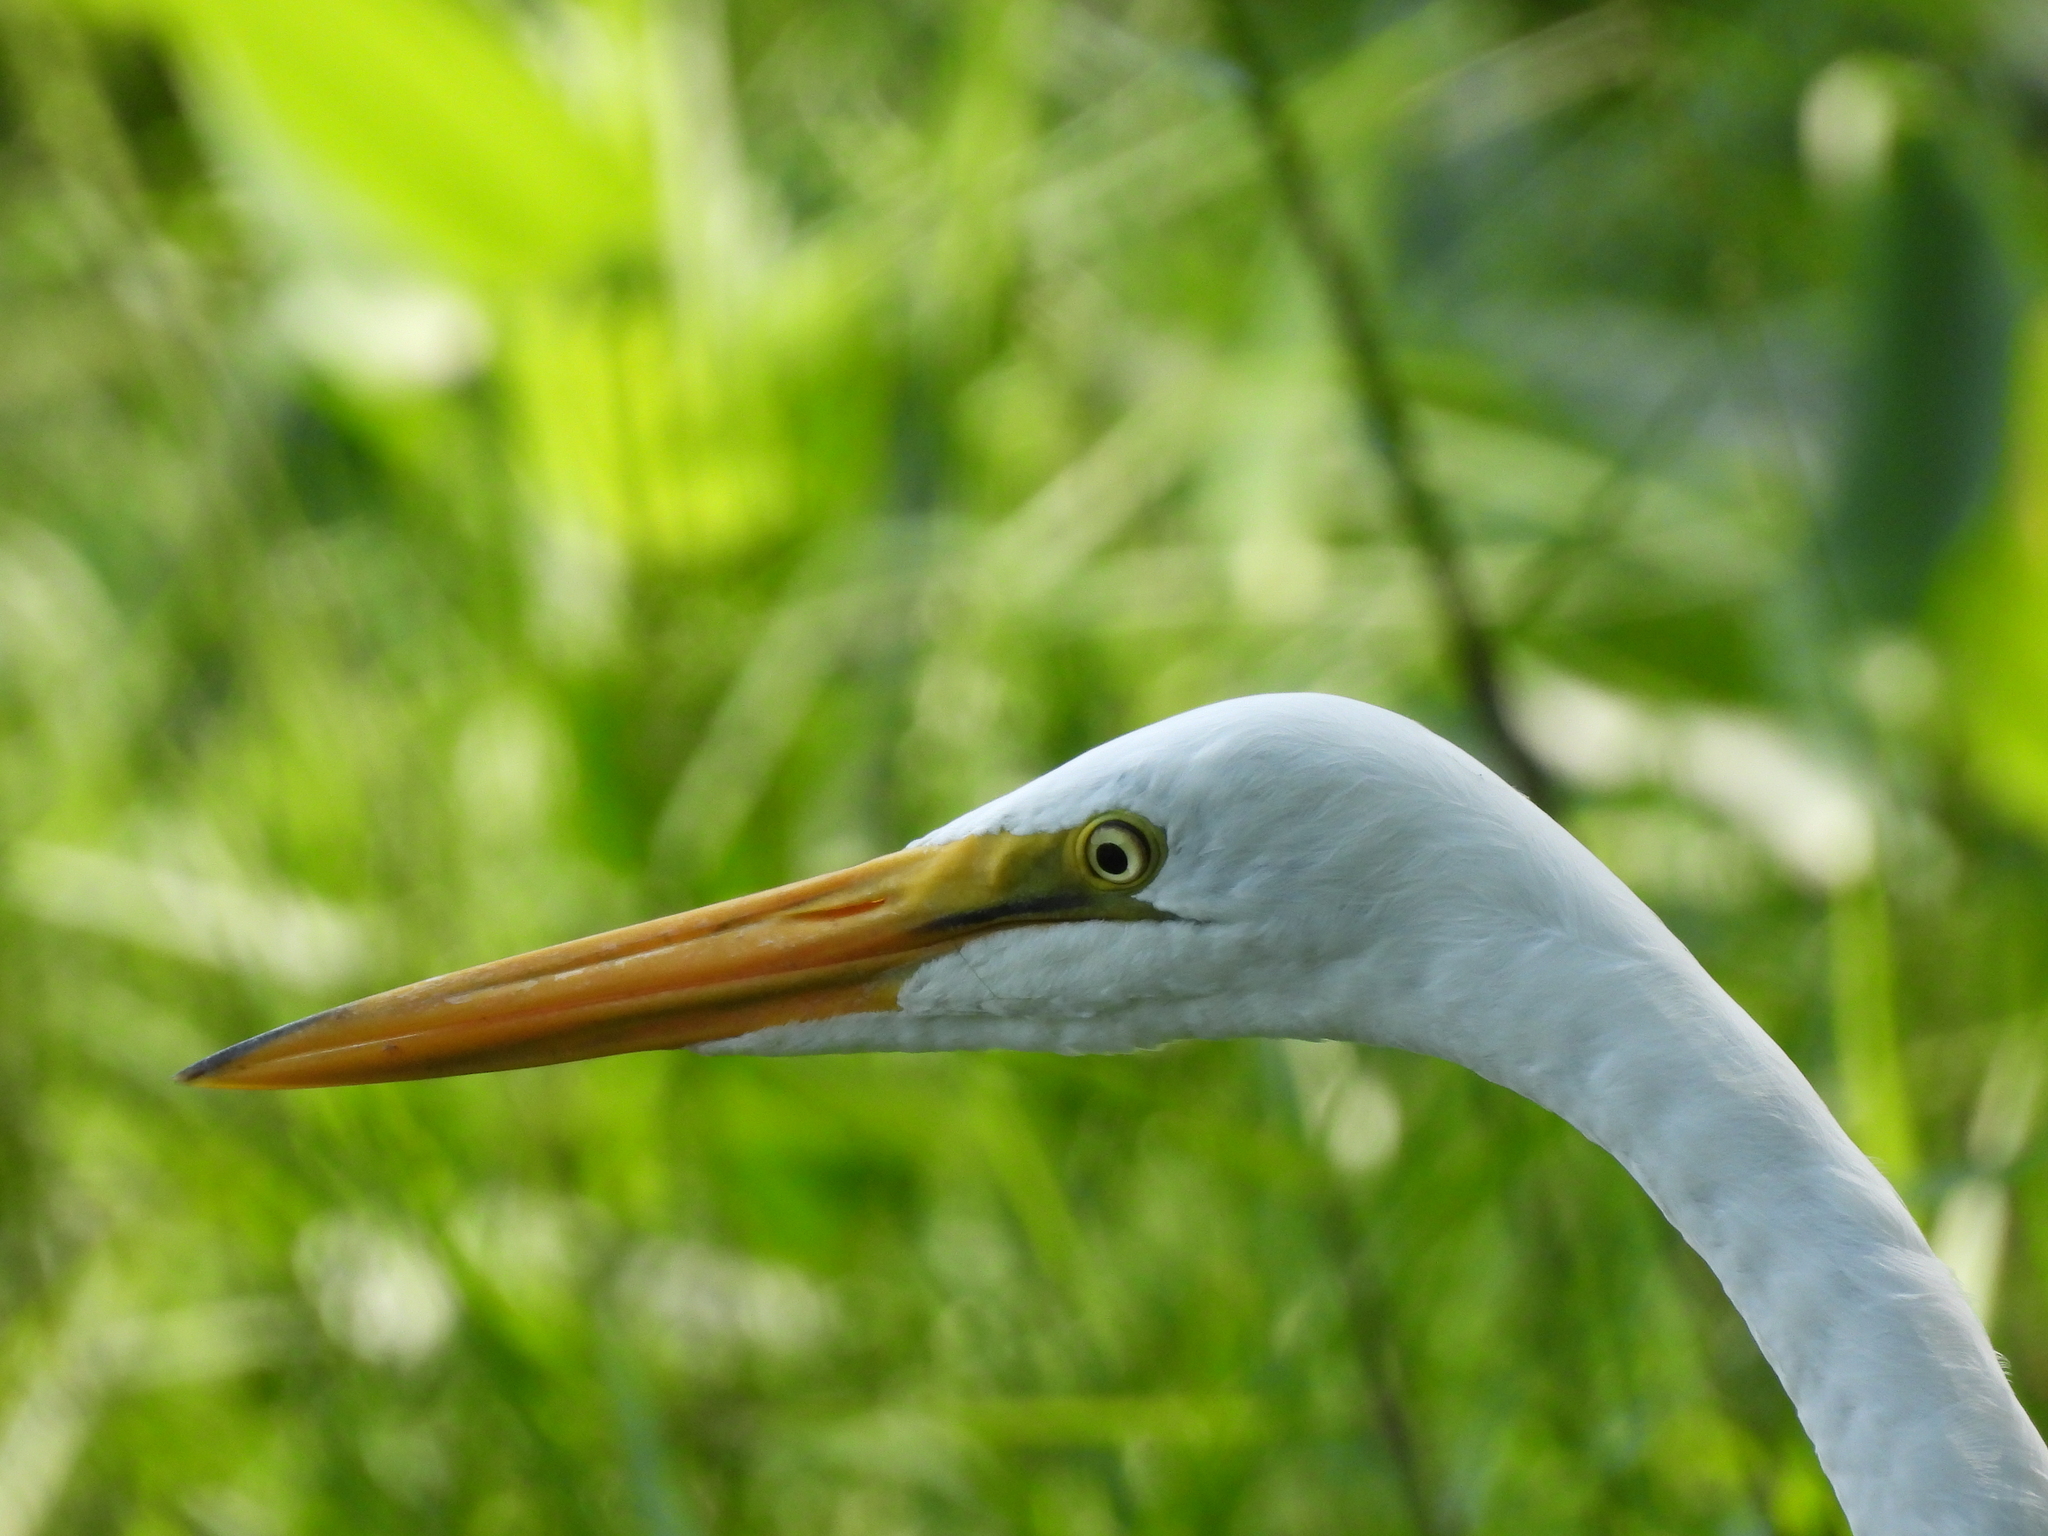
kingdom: Animalia
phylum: Chordata
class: Aves
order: Pelecaniformes
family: Ardeidae
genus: Ardea
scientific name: Ardea alba
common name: Great egret
